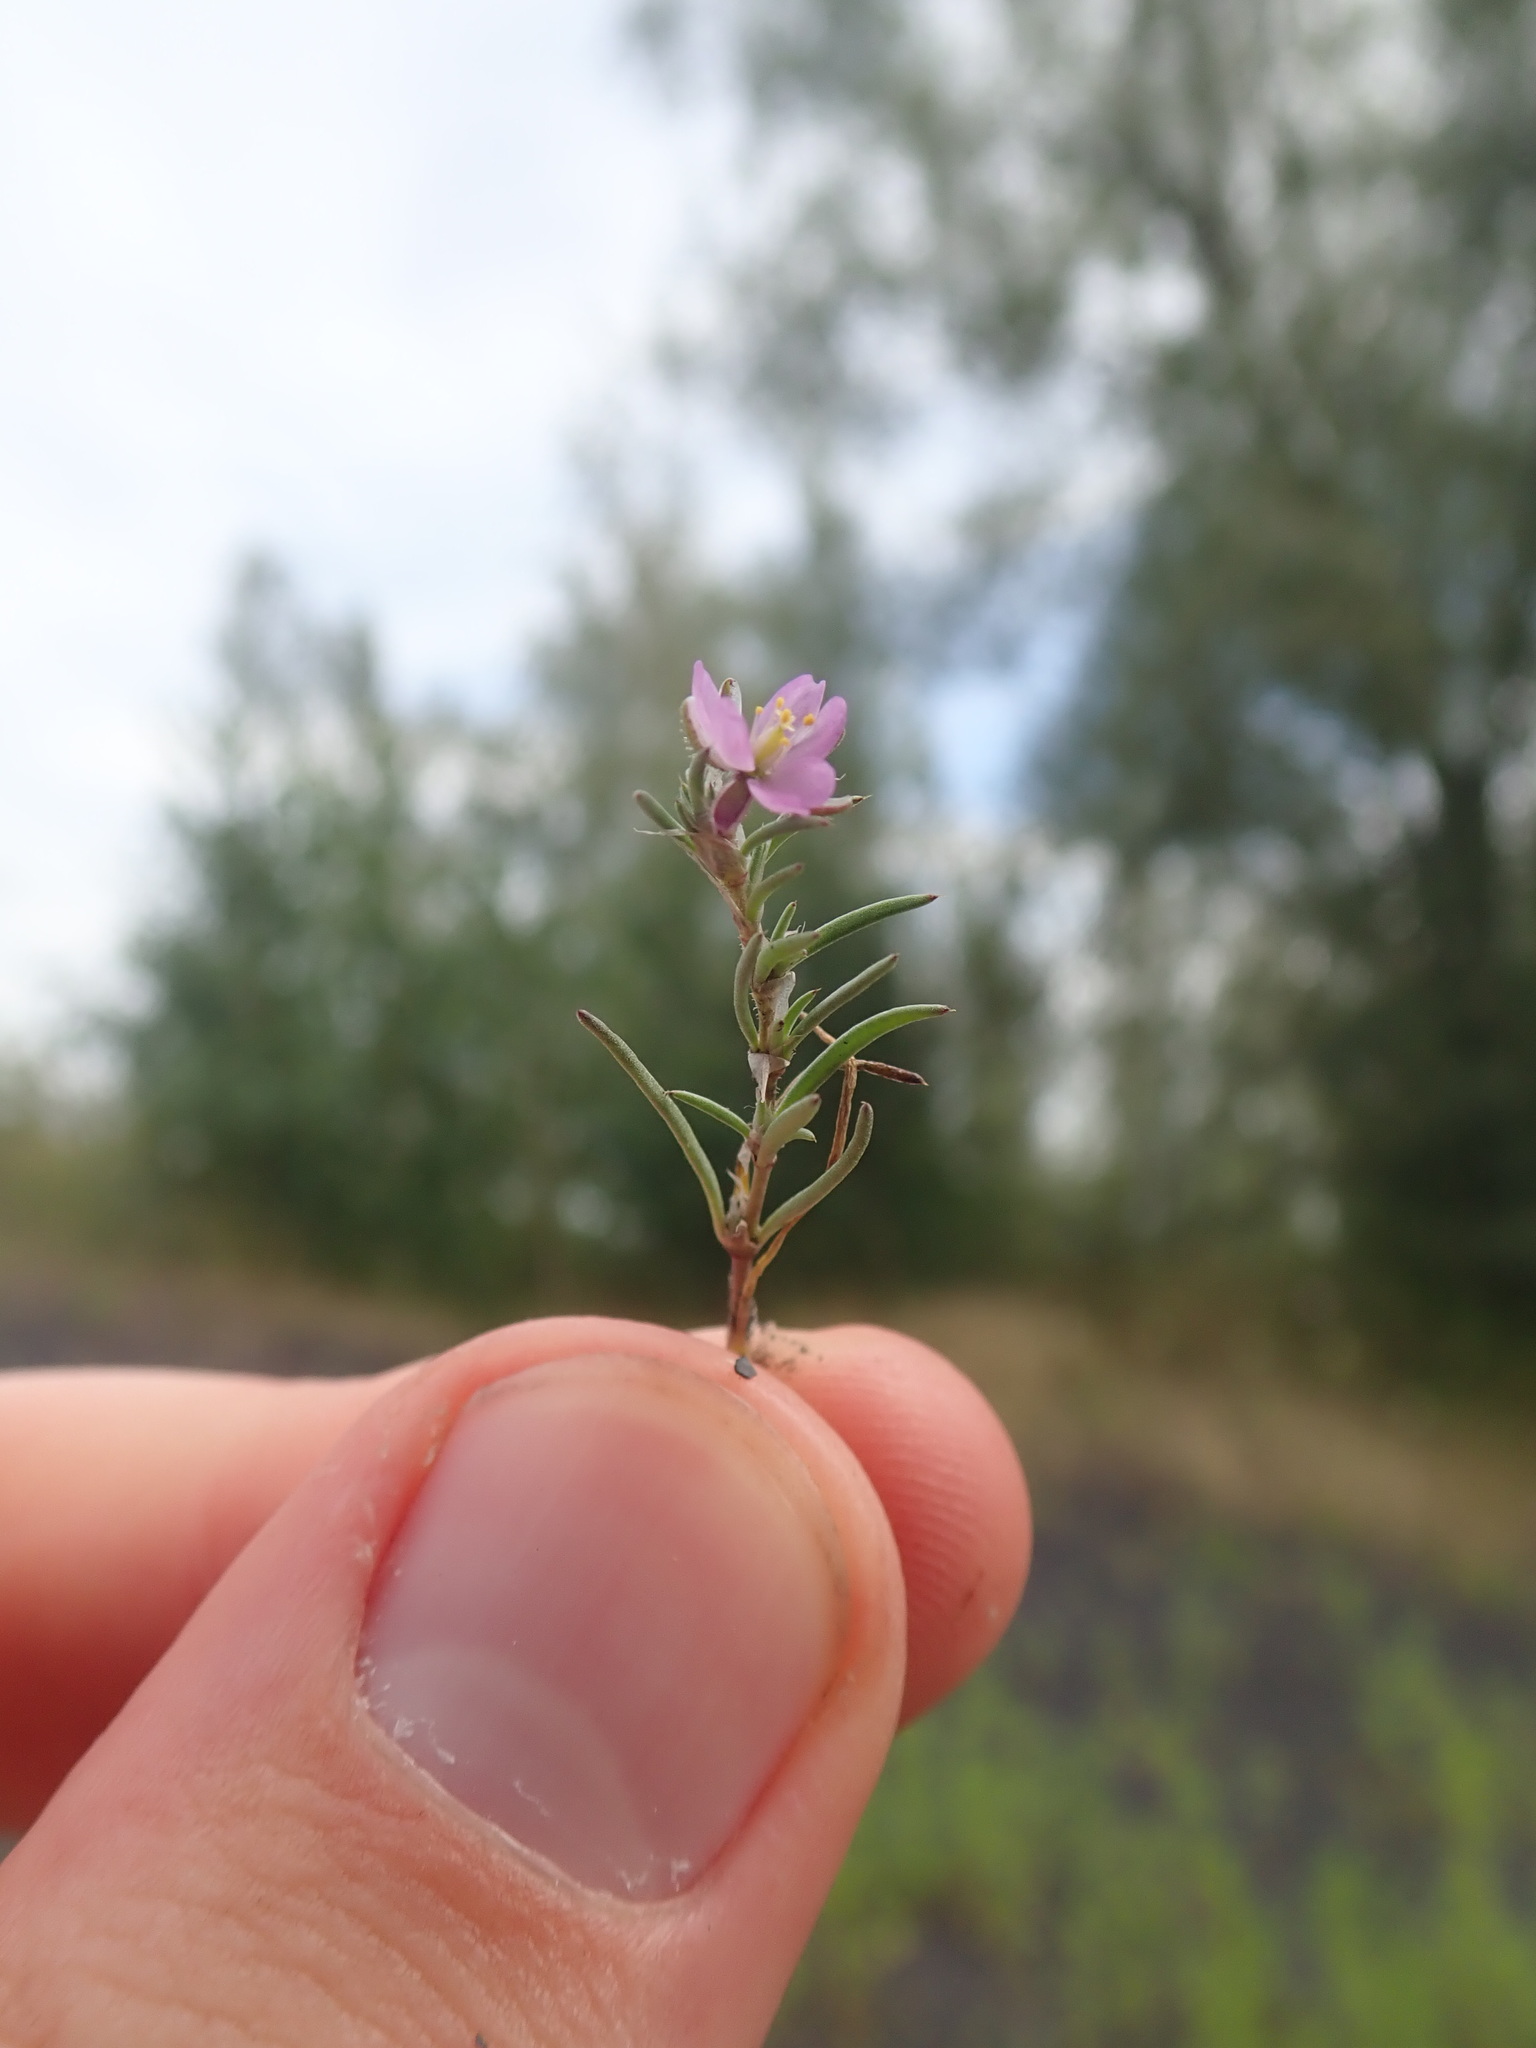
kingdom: Plantae
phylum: Tracheophyta
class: Magnoliopsida
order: Caryophyllales
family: Caryophyllaceae
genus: Spergularia
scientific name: Spergularia rubra
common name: Red sand-spurrey
